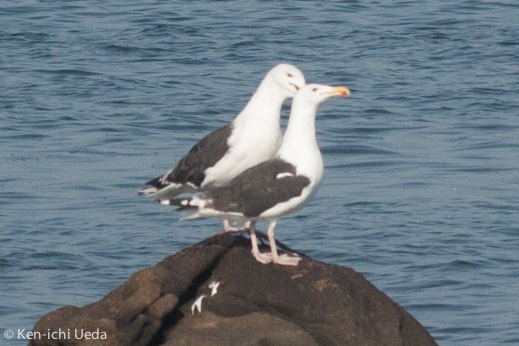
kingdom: Animalia
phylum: Chordata
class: Aves
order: Charadriiformes
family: Laridae
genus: Larus
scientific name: Larus marinus
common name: Great black-backed gull
